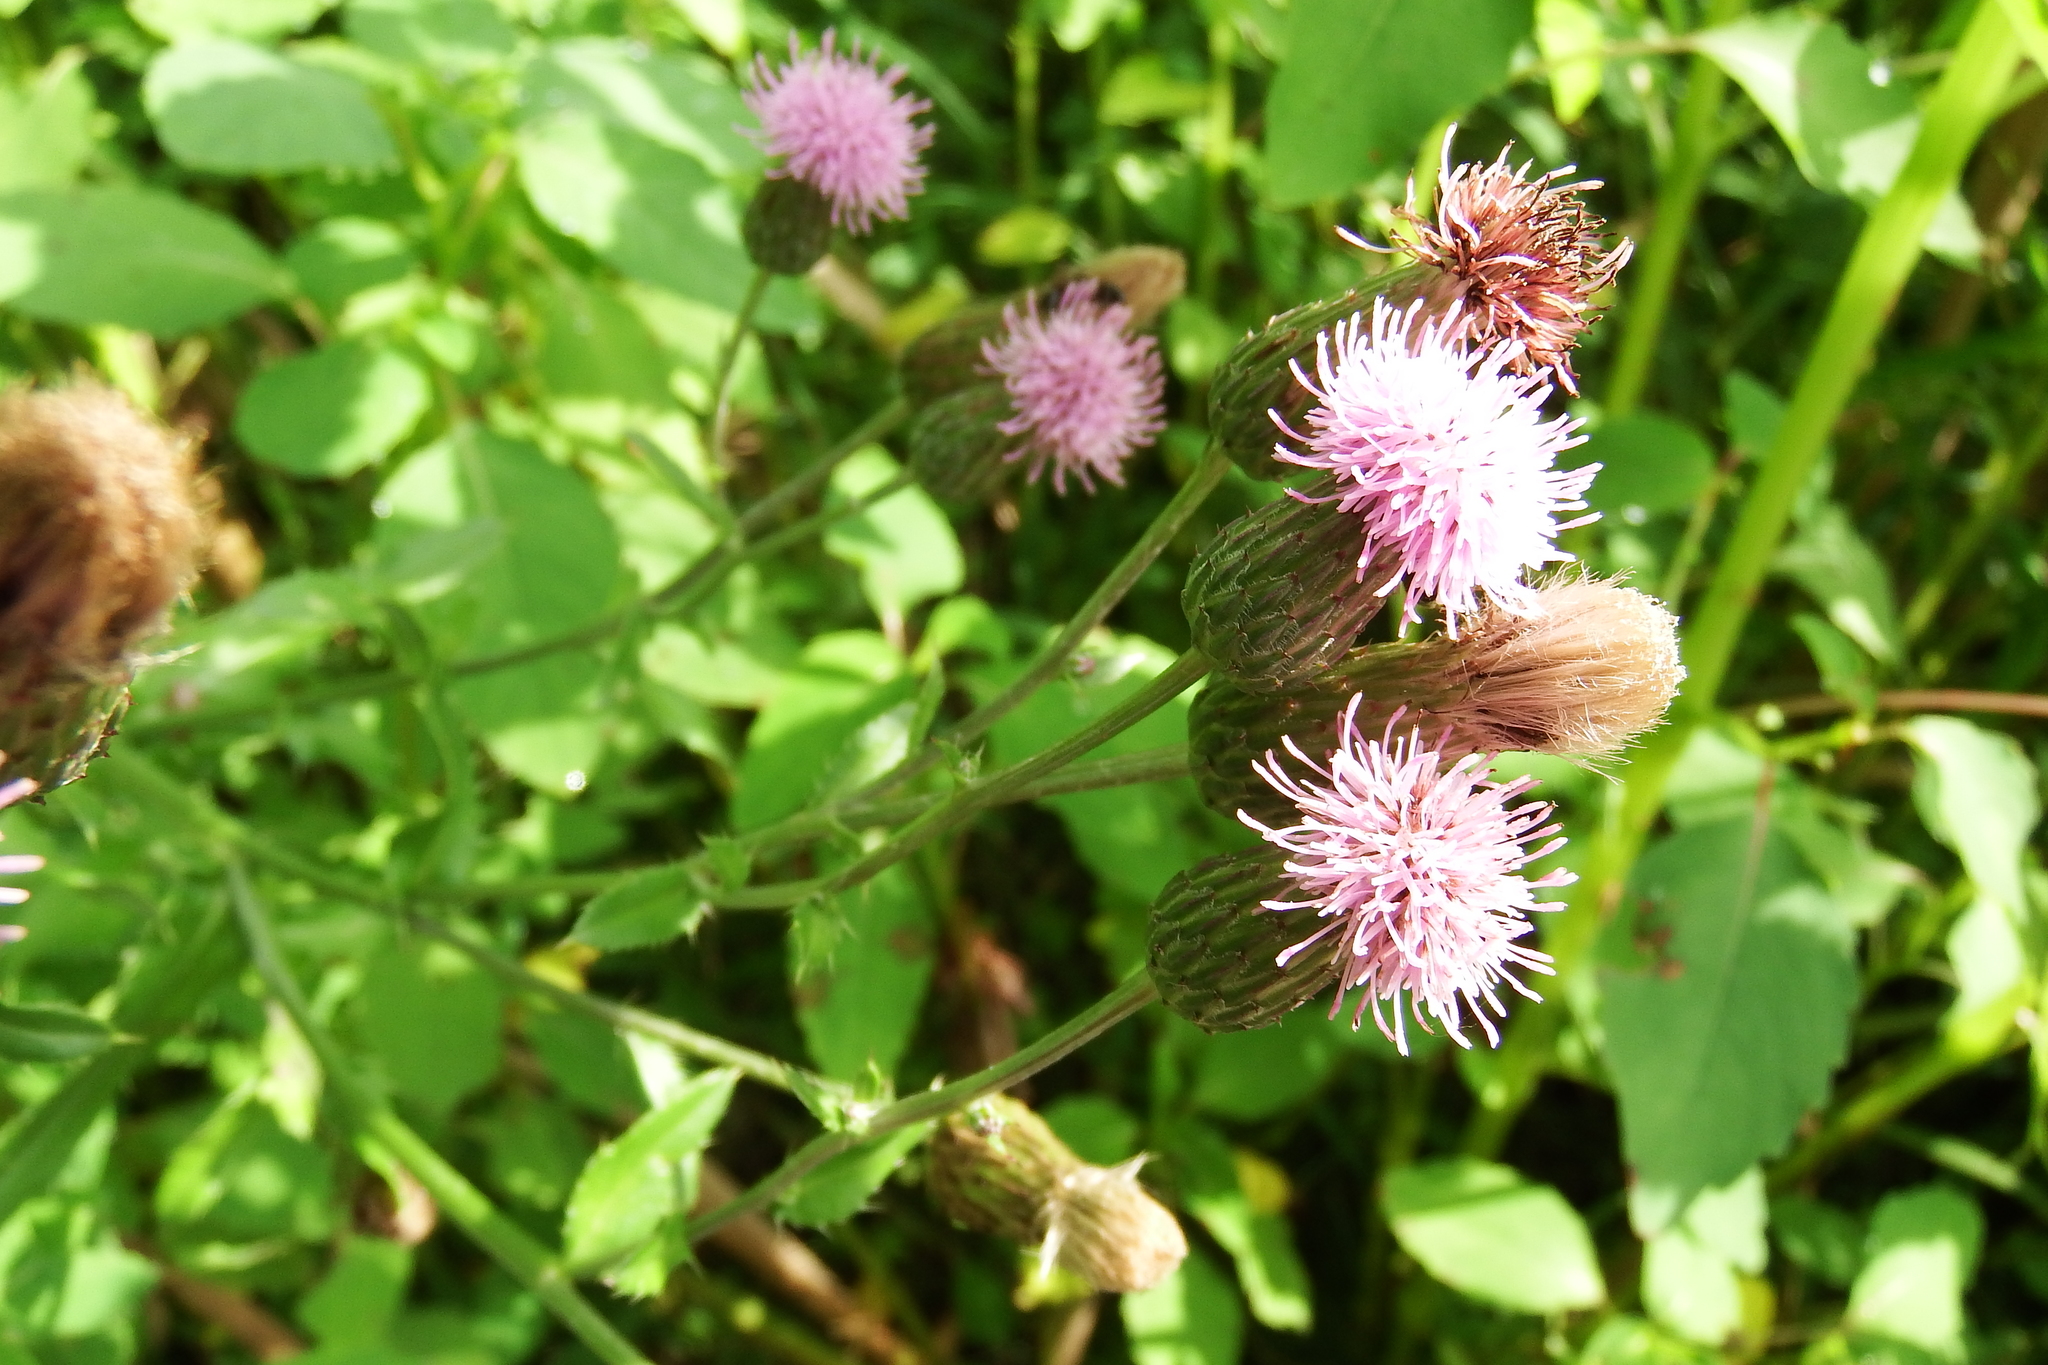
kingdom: Plantae
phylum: Tracheophyta
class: Magnoliopsida
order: Asterales
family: Asteraceae
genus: Cirsium
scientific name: Cirsium arvense
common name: Creeping thistle
